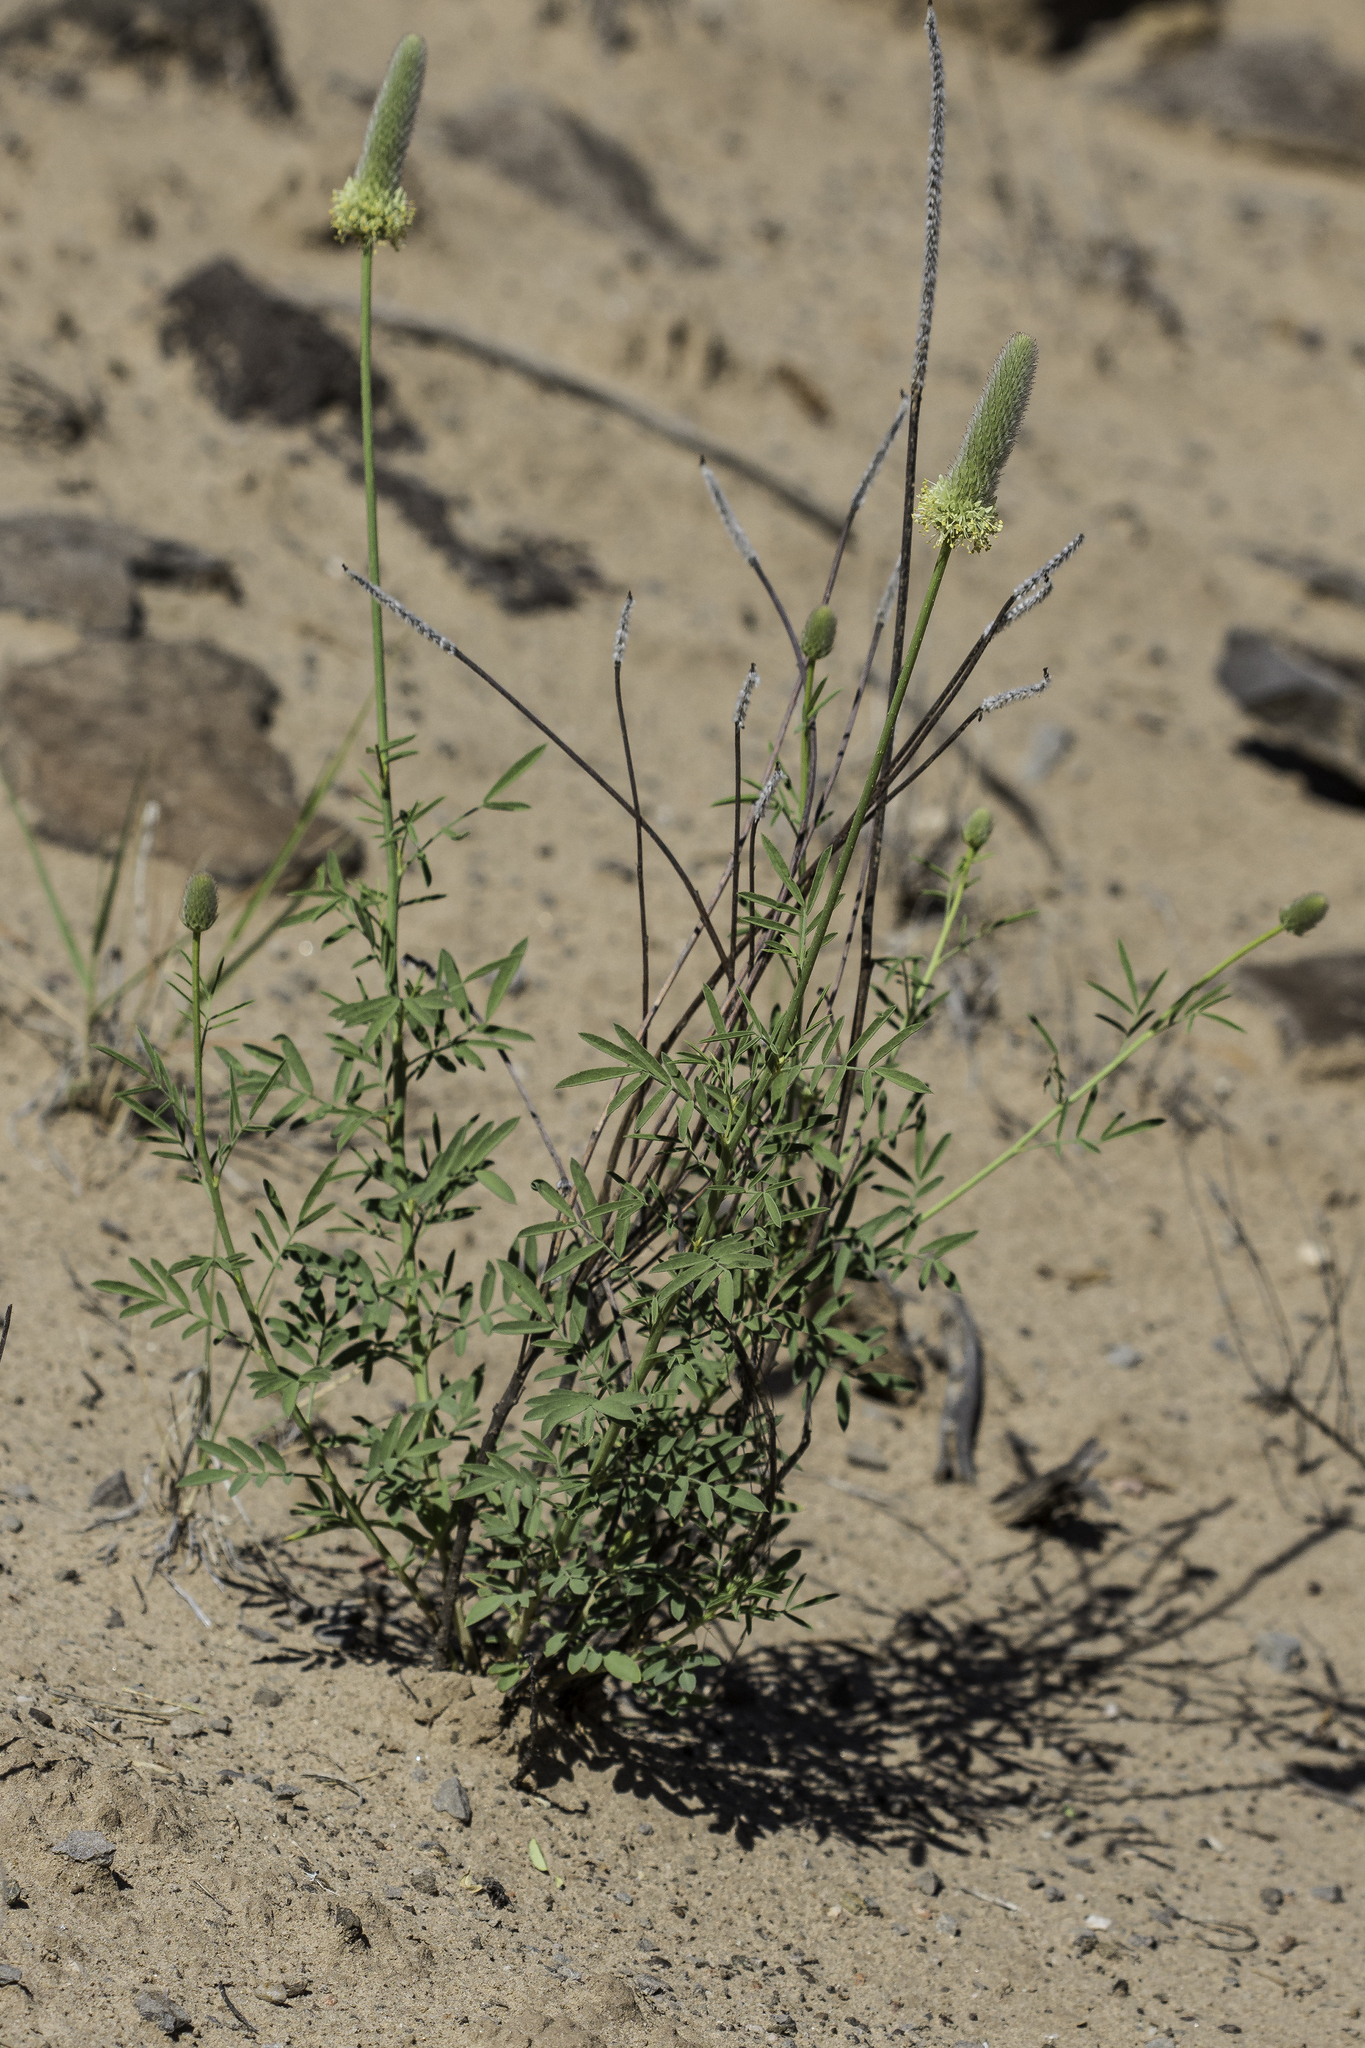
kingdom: Plantae
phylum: Tracheophyta
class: Magnoliopsida
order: Fabales
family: Fabaceae
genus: Dalea
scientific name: Dalea cylindriceps
